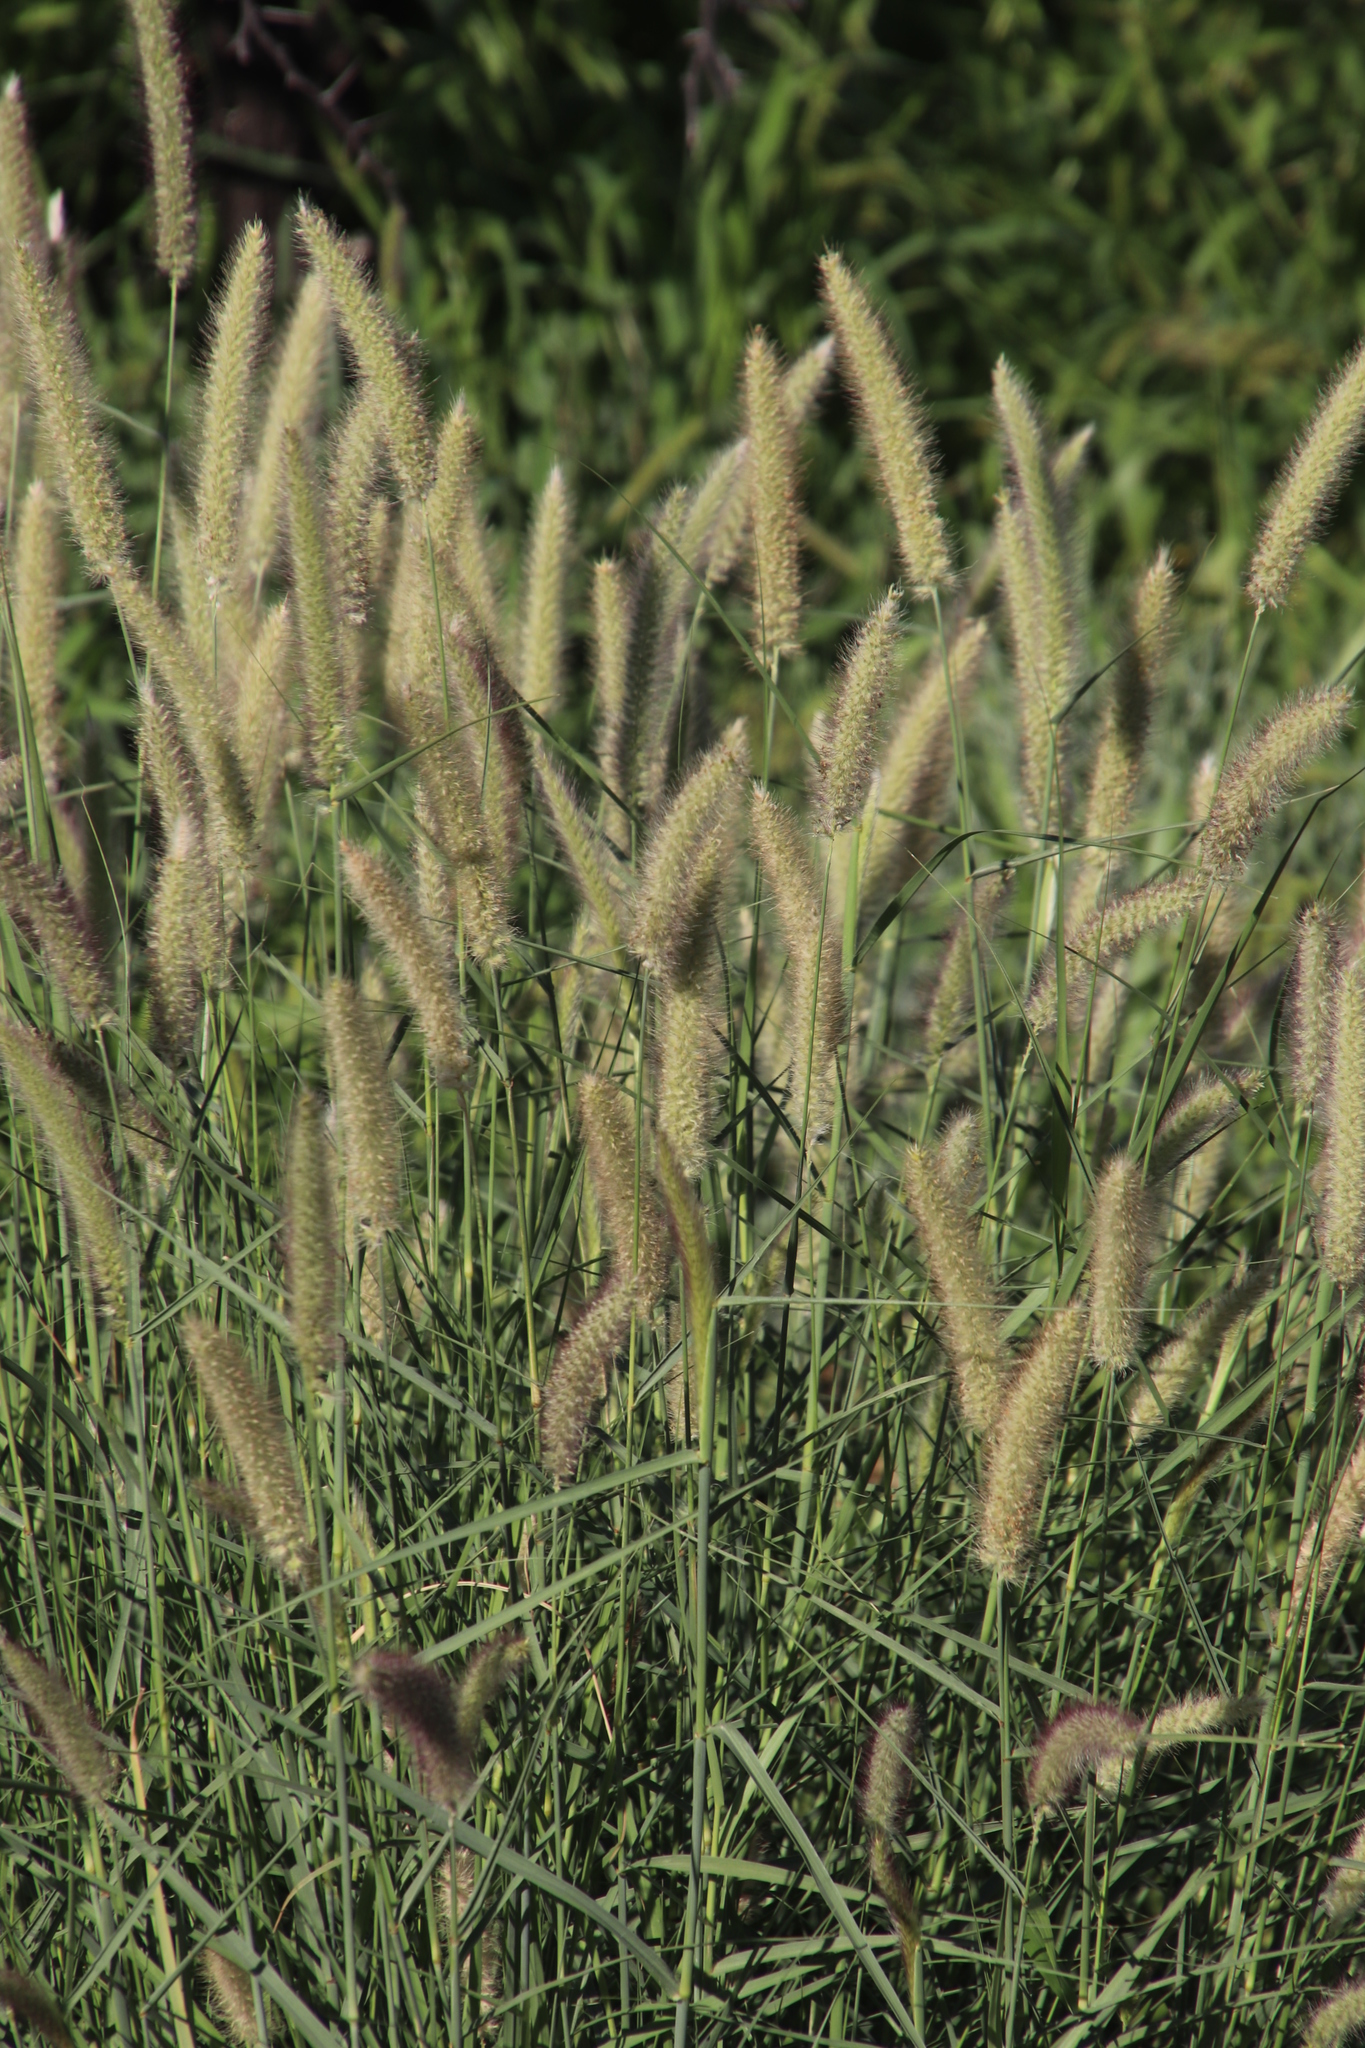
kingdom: Plantae
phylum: Tracheophyta
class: Liliopsida
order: Poales
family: Poaceae
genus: Cenchrus
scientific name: Cenchrus ciliaris
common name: Buffelgrass
